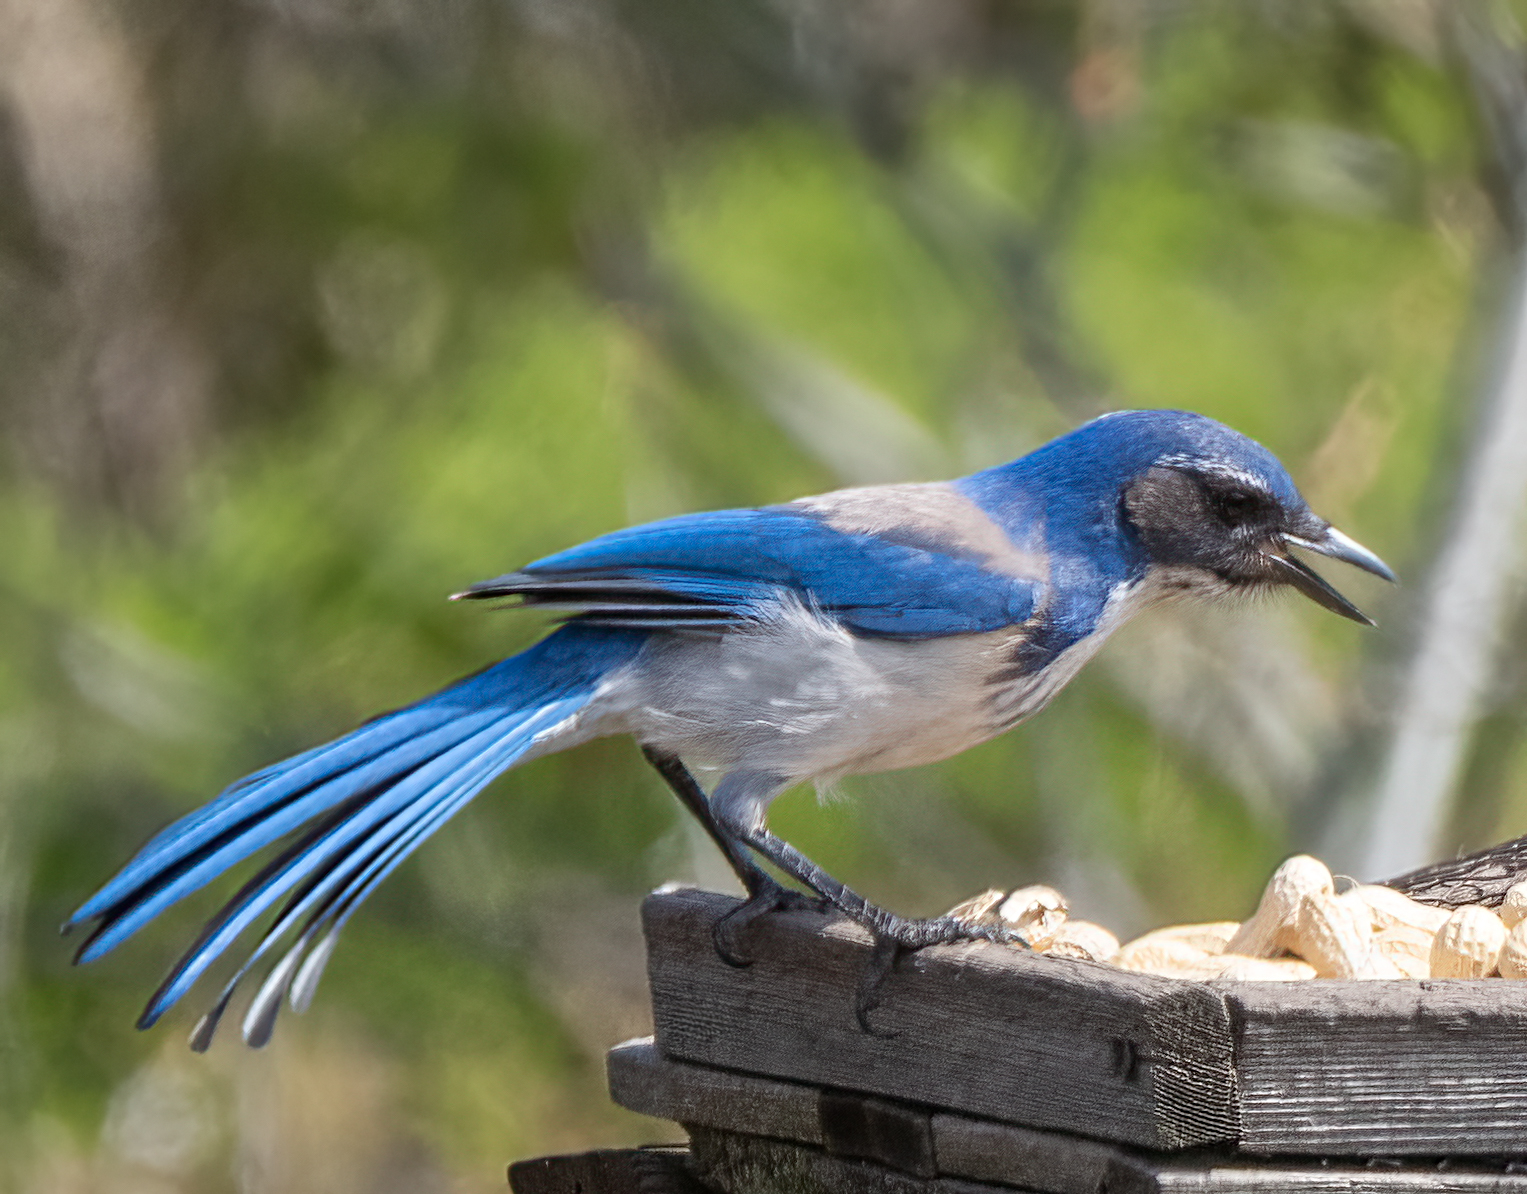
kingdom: Animalia
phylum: Chordata
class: Aves
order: Passeriformes
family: Corvidae
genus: Aphelocoma
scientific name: Aphelocoma californica
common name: California scrub-jay
